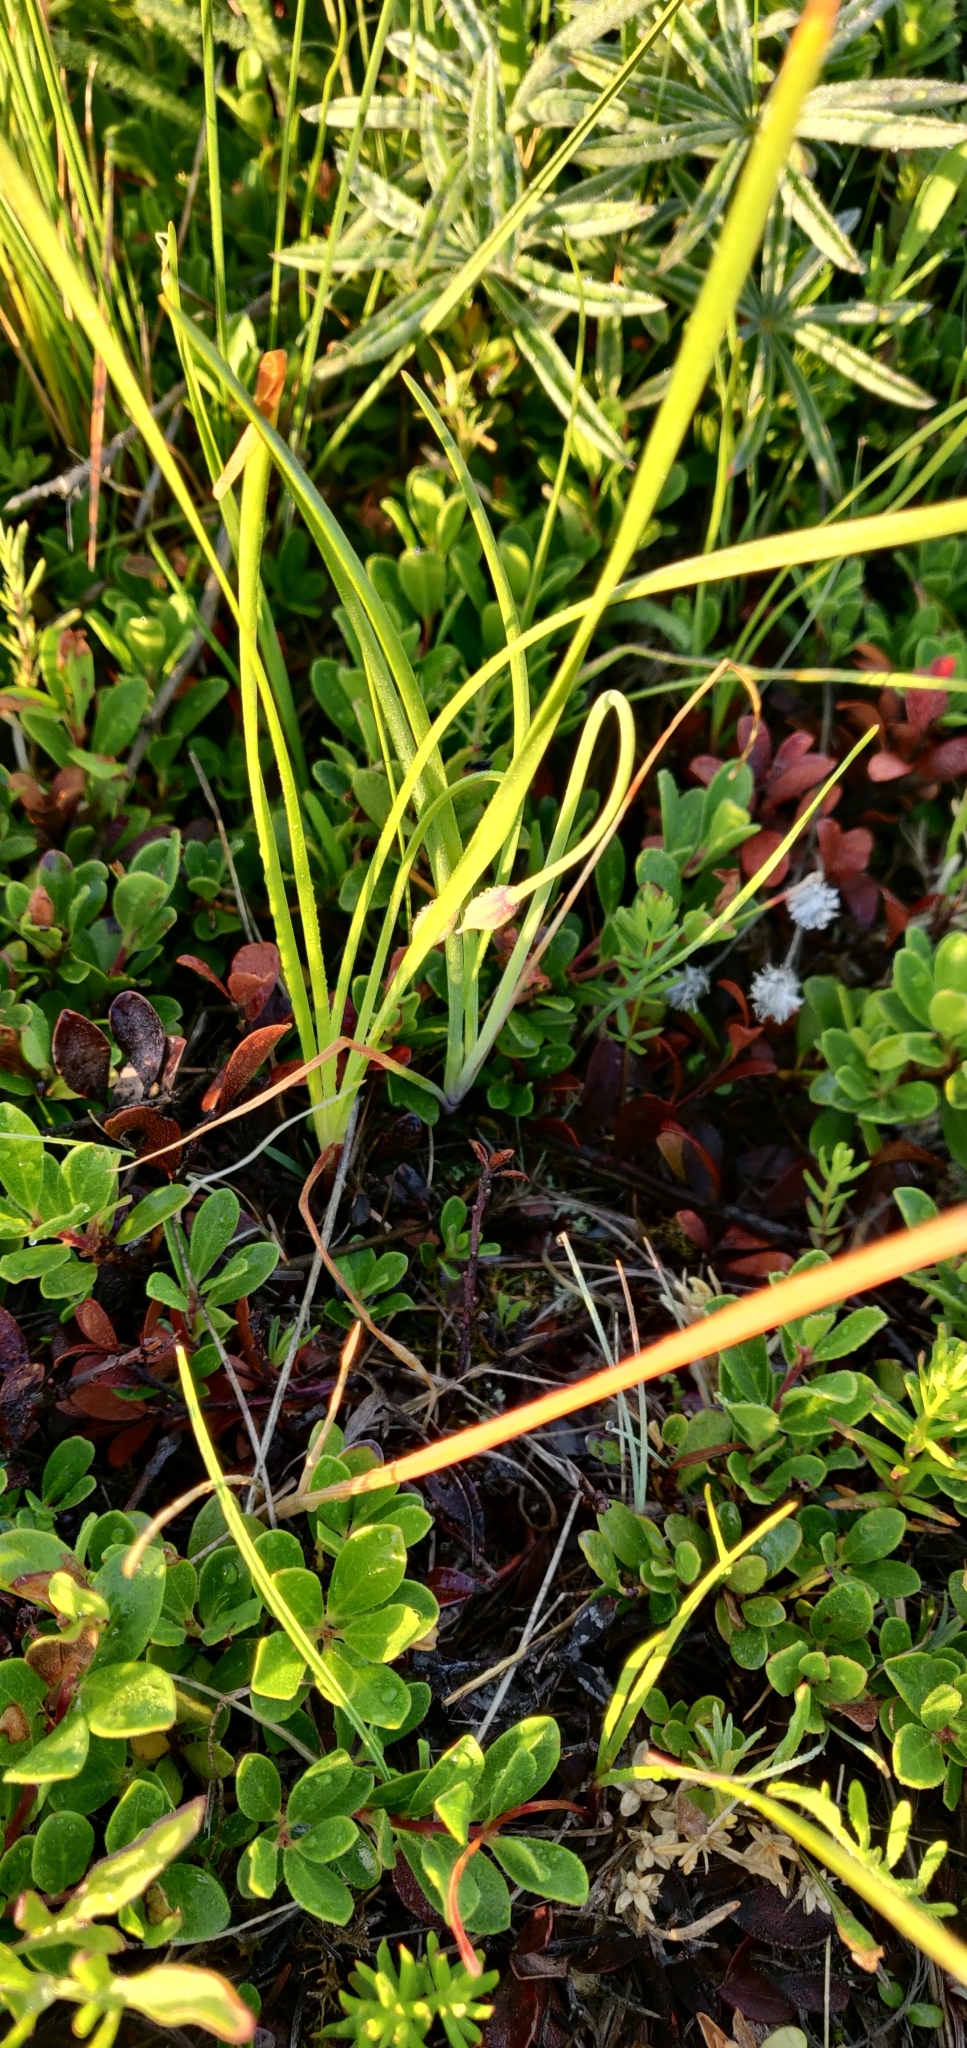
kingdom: Plantae
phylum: Tracheophyta
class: Liliopsida
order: Asparagales
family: Amaryllidaceae
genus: Allium
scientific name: Allium cernuum
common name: Nodding onion
